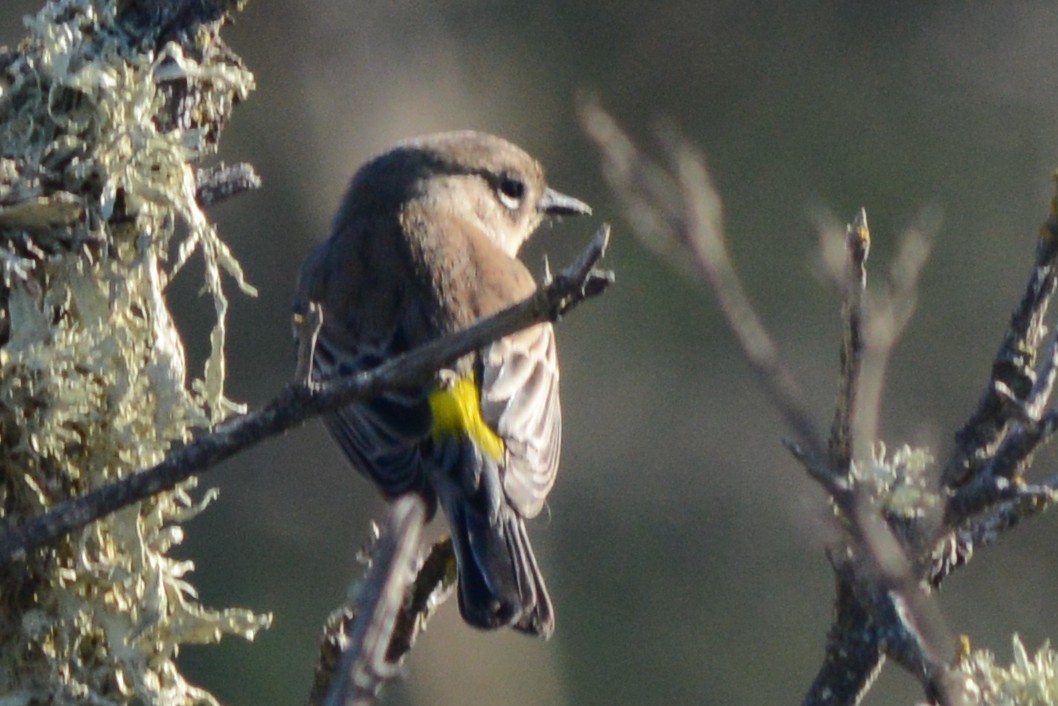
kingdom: Animalia
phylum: Chordata
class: Aves
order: Passeriformes
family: Parulidae
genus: Setophaga
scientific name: Setophaga coronata
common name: Myrtle warbler
